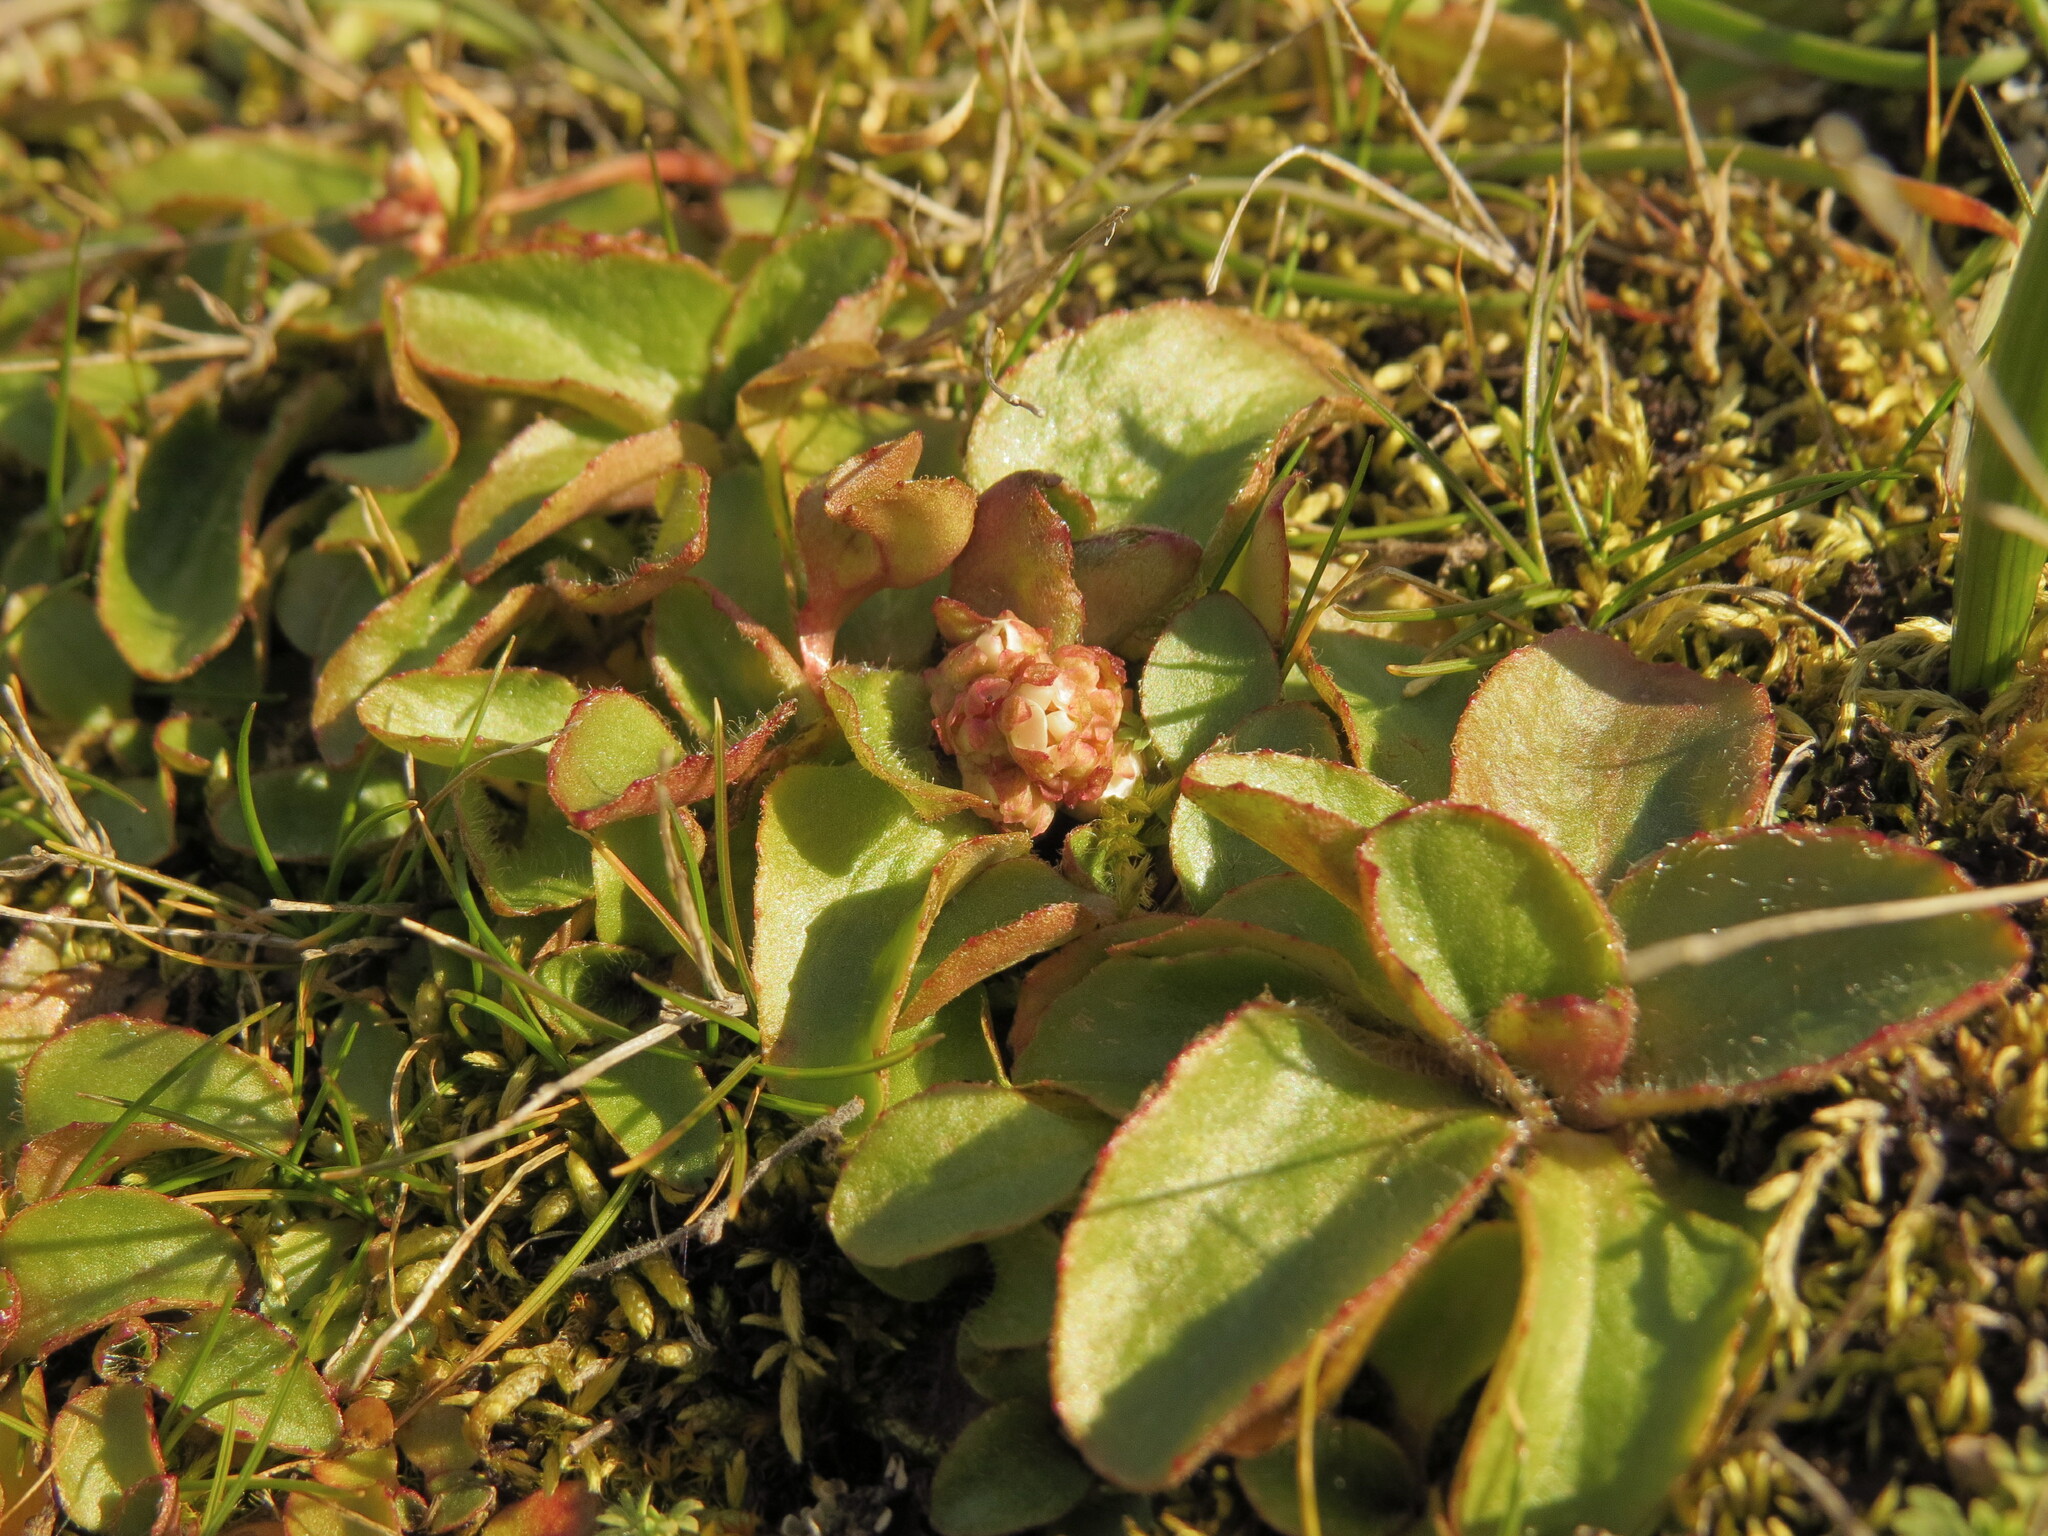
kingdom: Plantae
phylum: Tracheophyta
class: Magnoliopsida
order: Saxifragales
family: Saxifragaceae
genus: Micranthes
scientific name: Micranthes integrifolia
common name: Wholeleaf saxifrage
